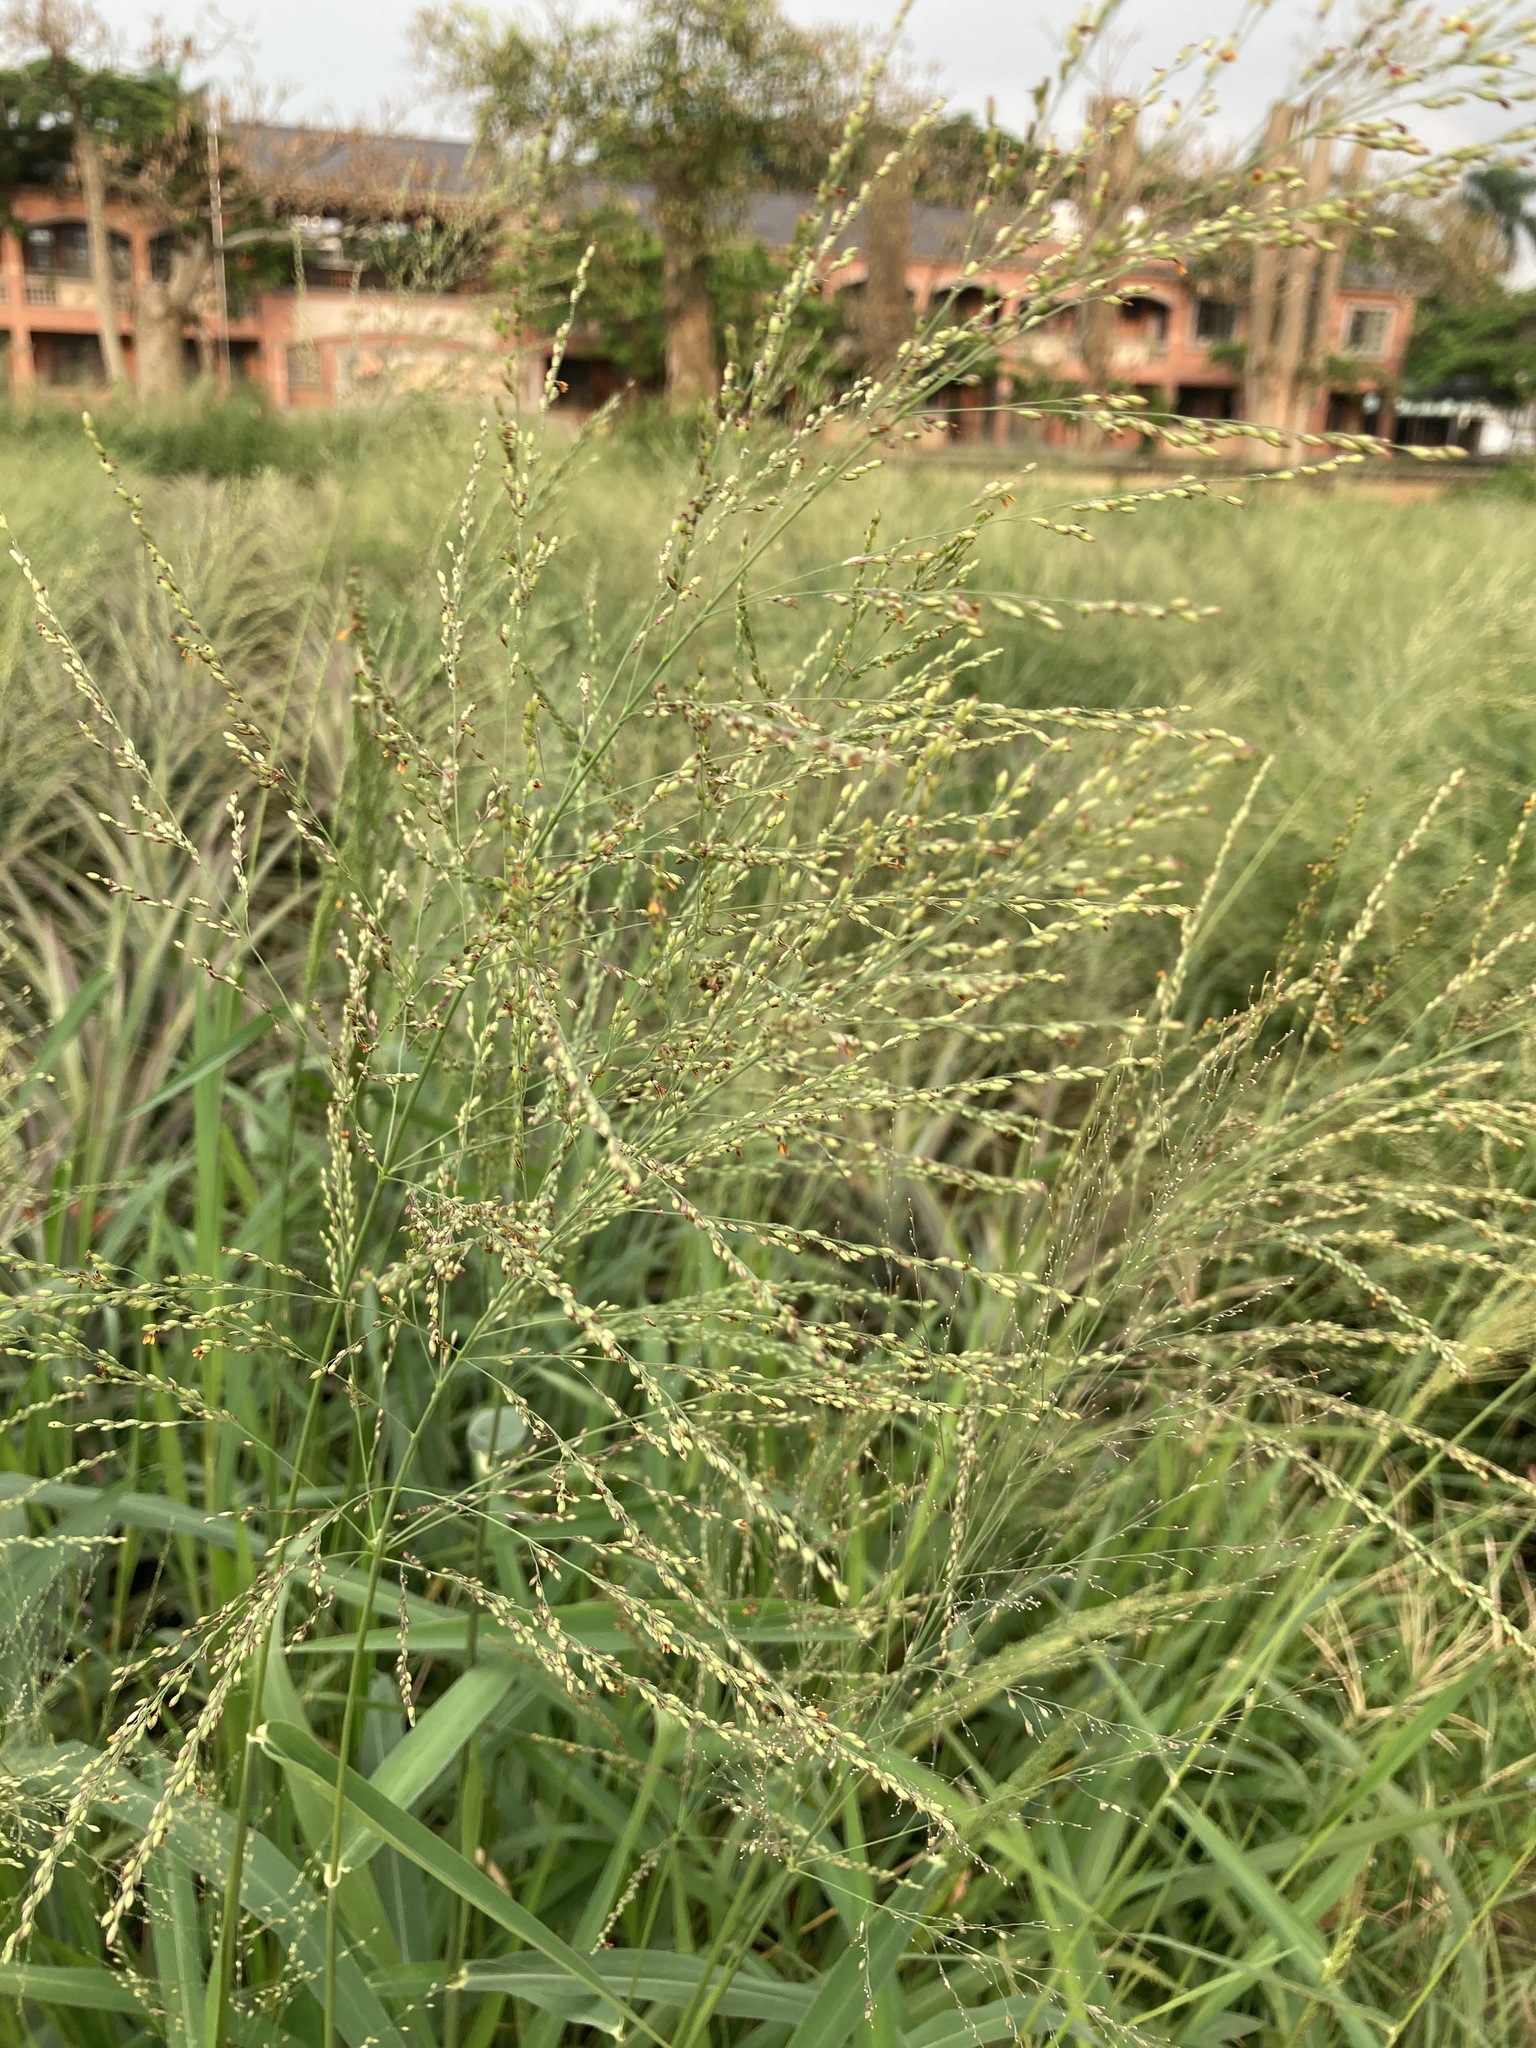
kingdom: Plantae
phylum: Tracheophyta
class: Liliopsida
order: Poales
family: Poaceae
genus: Megathyrsus
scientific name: Megathyrsus maximus
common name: Guineagrass
